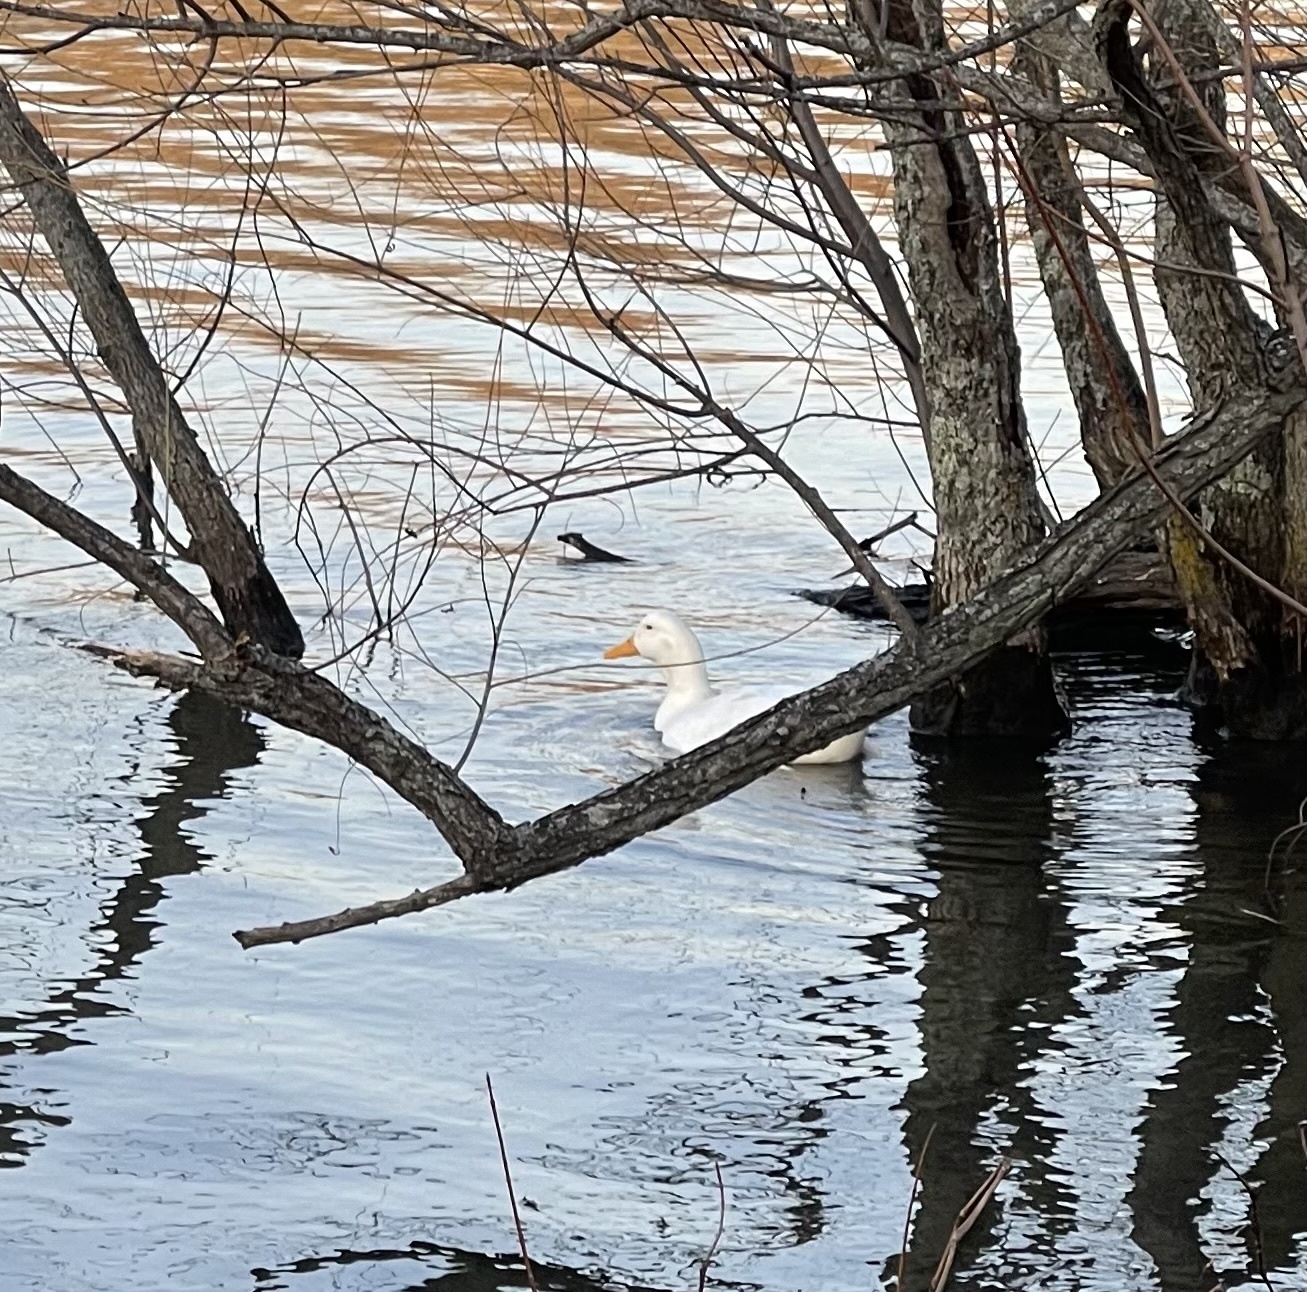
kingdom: Animalia
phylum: Chordata
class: Aves
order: Anseriformes
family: Anatidae
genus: Anas
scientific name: Anas platyrhynchos
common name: Mallard
